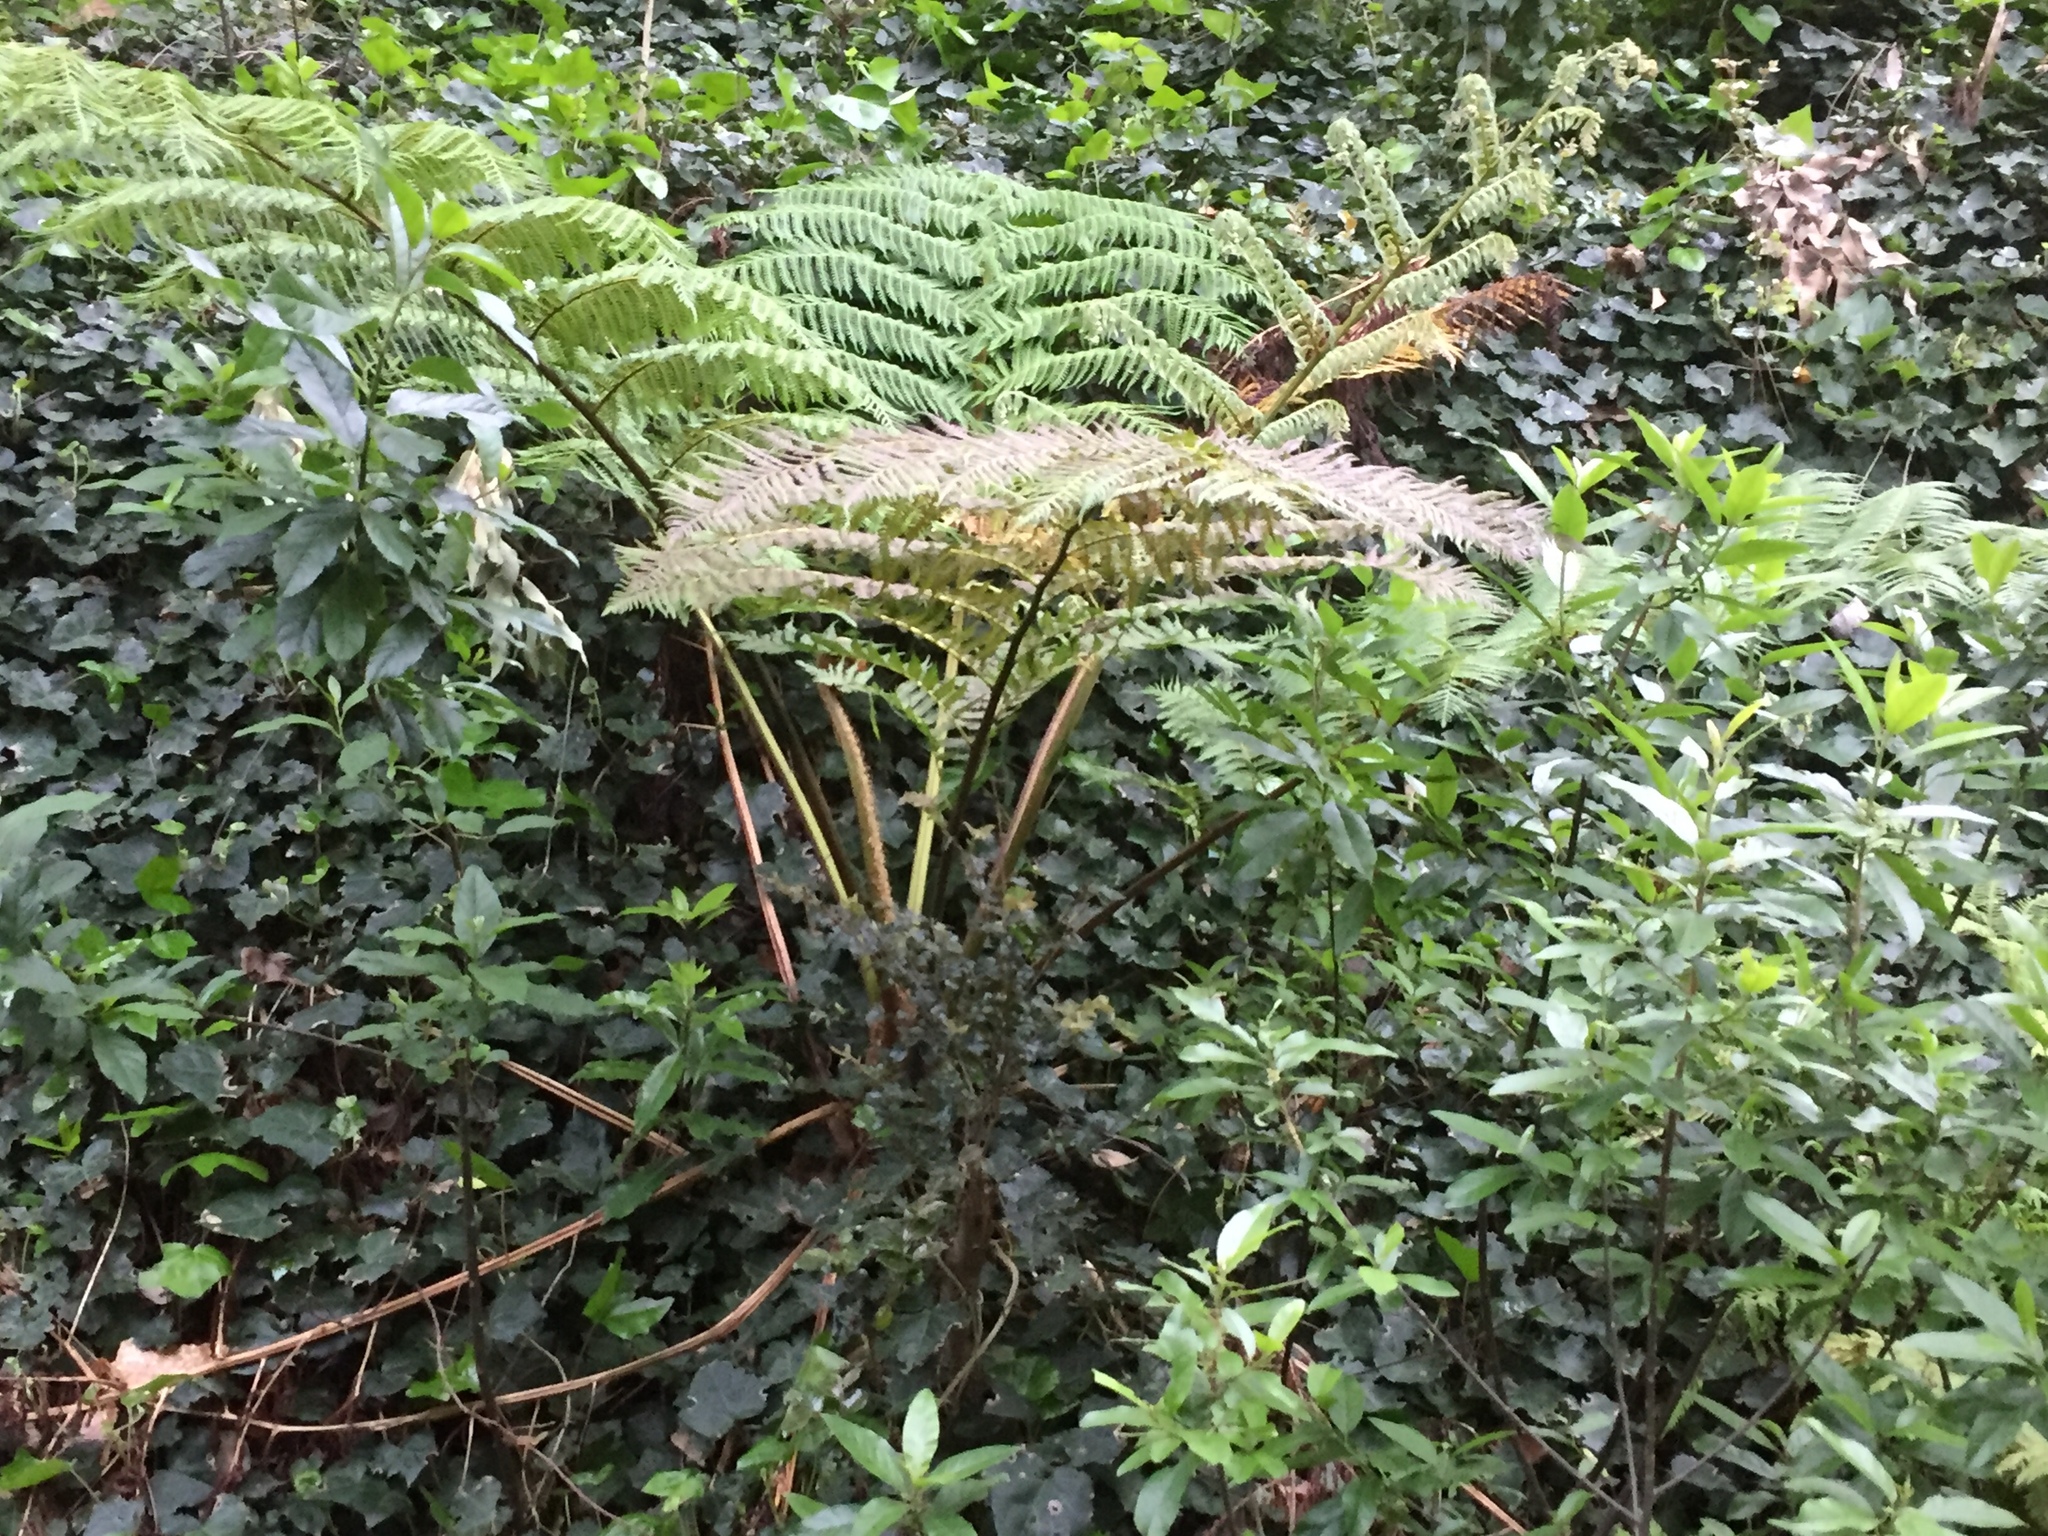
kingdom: Plantae
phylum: Tracheophyta
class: Polypodiopsida
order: Cyatheales
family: Cyatheaceae
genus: Sphaeropteris
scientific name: Sphaeropteris cooperi
